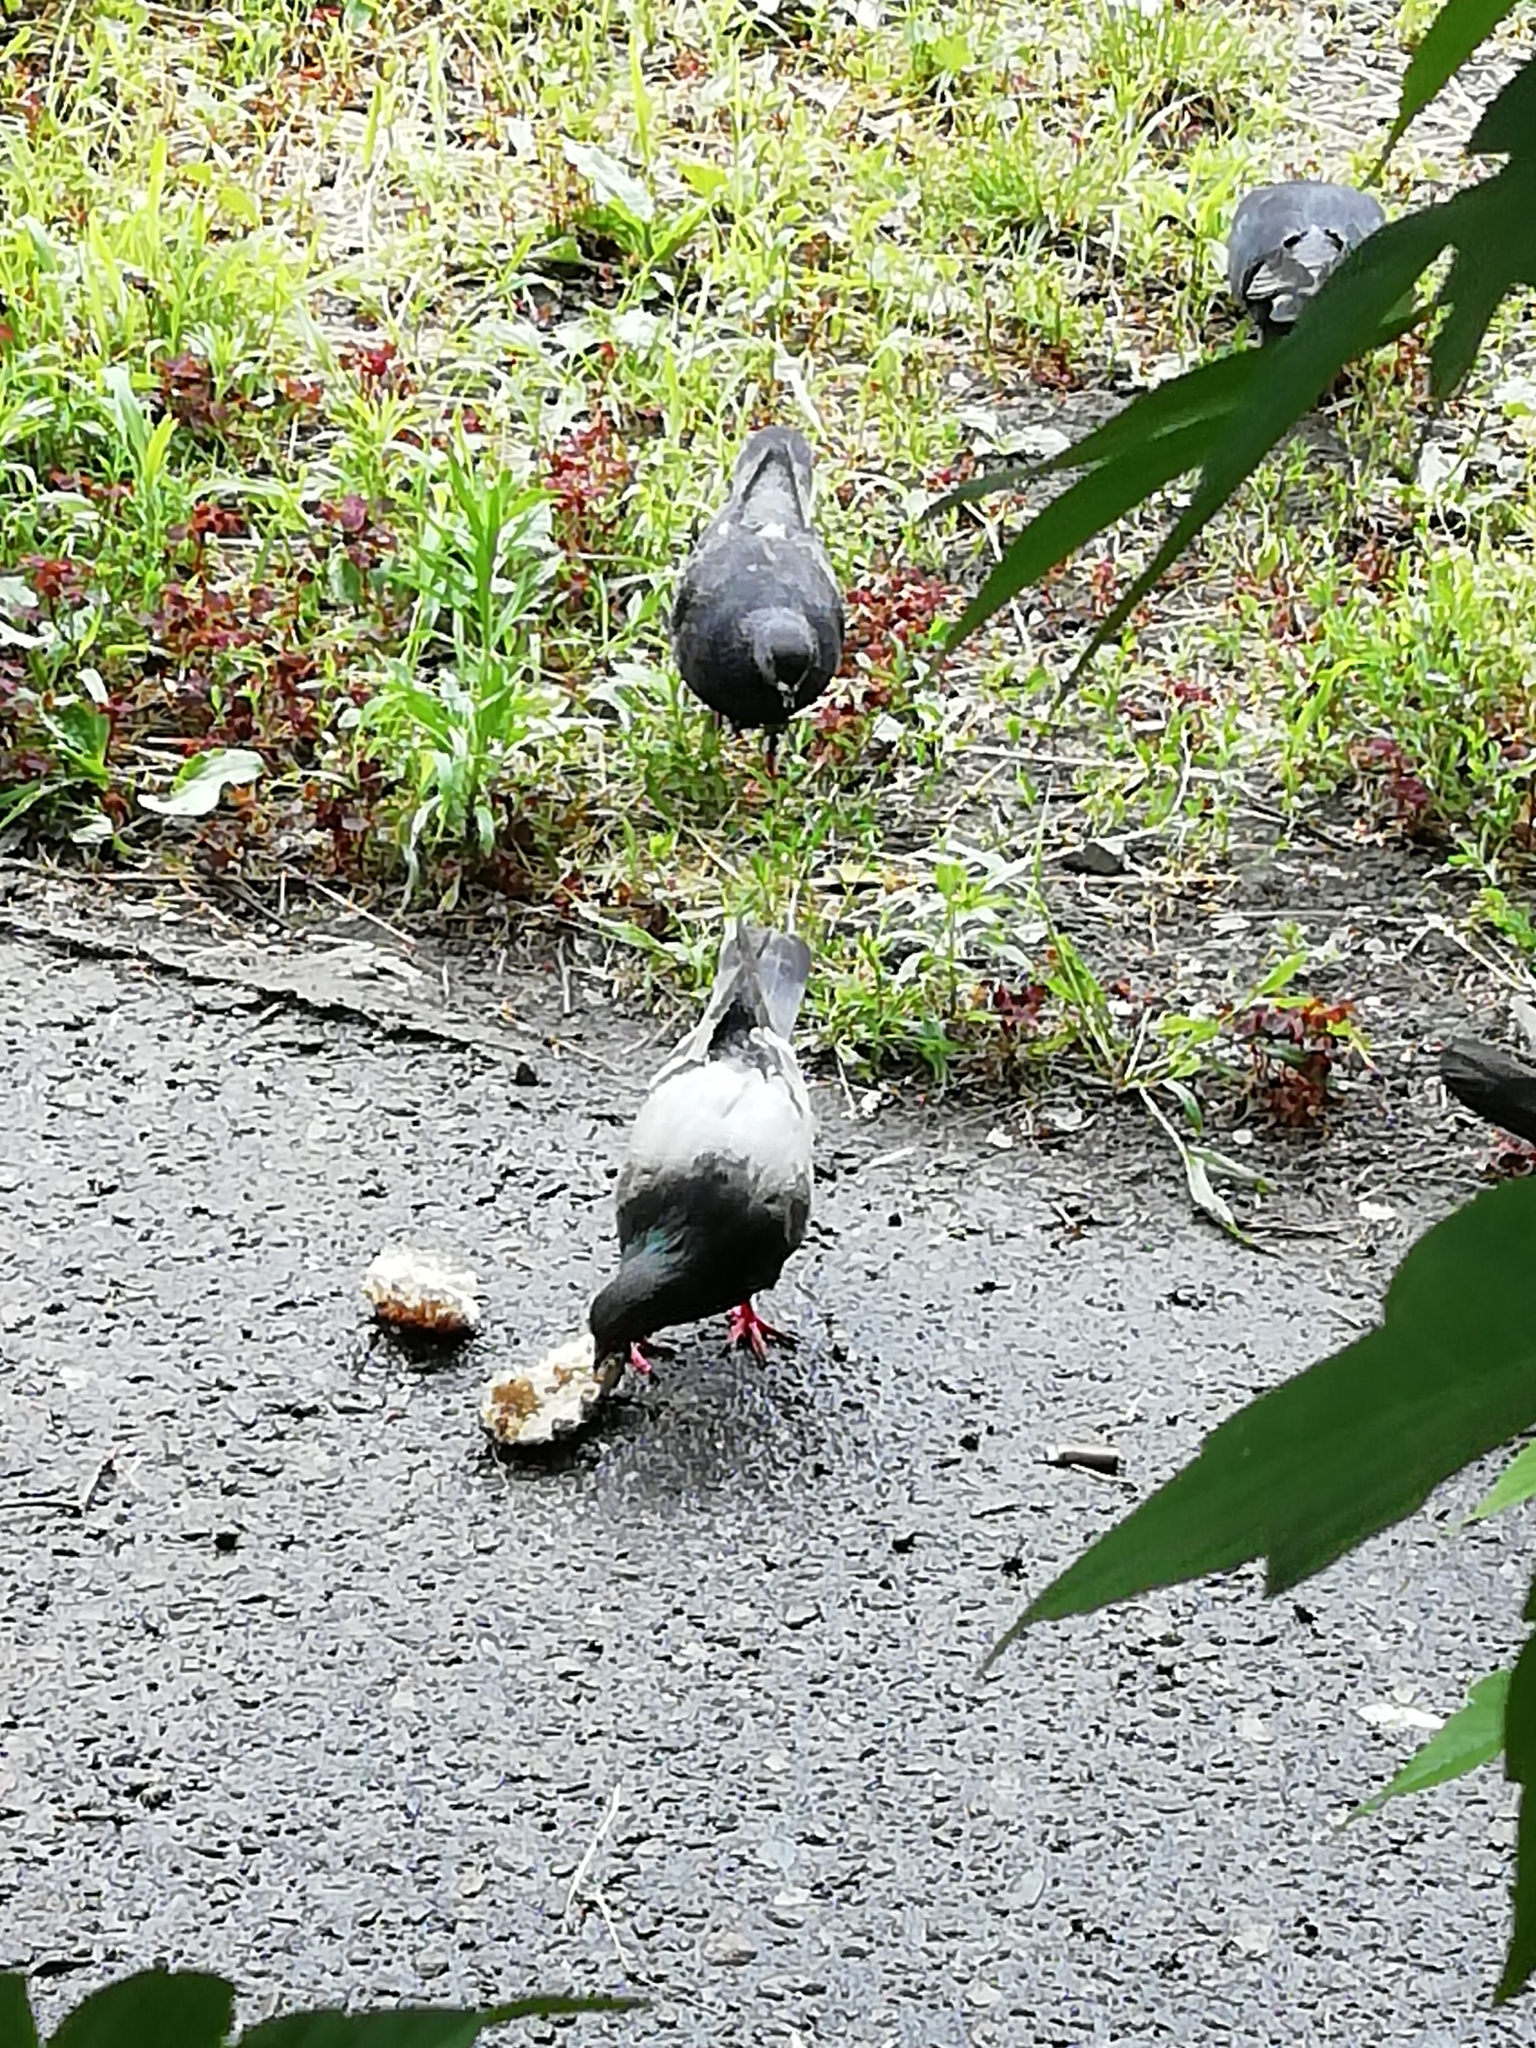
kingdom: Animalia
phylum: Chordata
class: Aves
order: Columbiformes
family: Columbidae
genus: Columba
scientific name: Columba livia
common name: Rock pigeon
